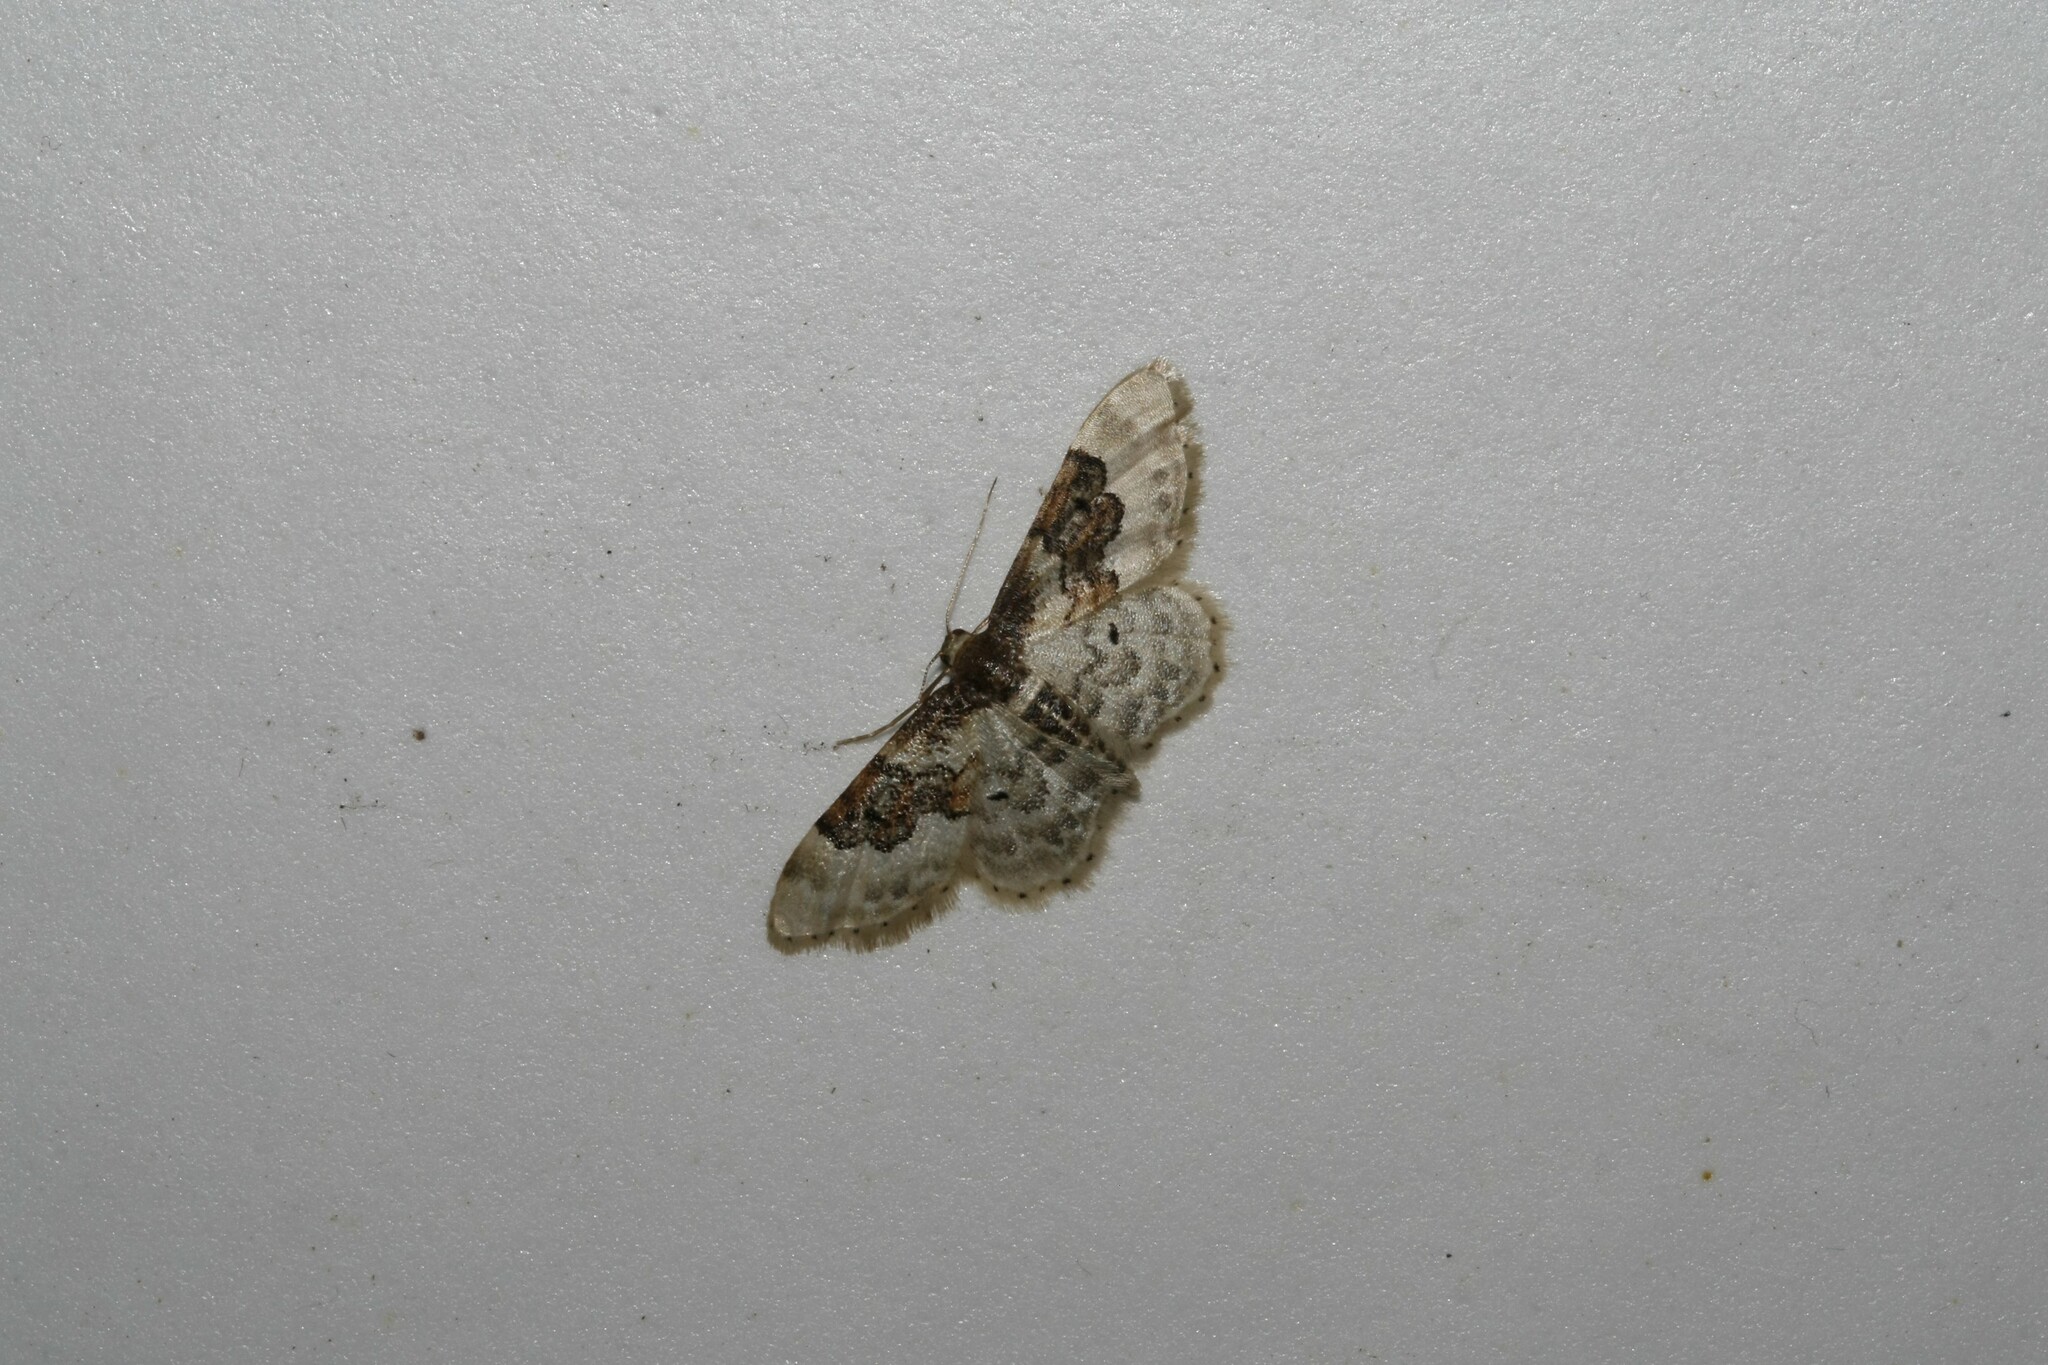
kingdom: Animalia
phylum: Arthropoda
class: Insecta
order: Lepidoptera
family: Geometridae
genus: Idaea
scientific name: Idaea rusticata
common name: Least carpet
